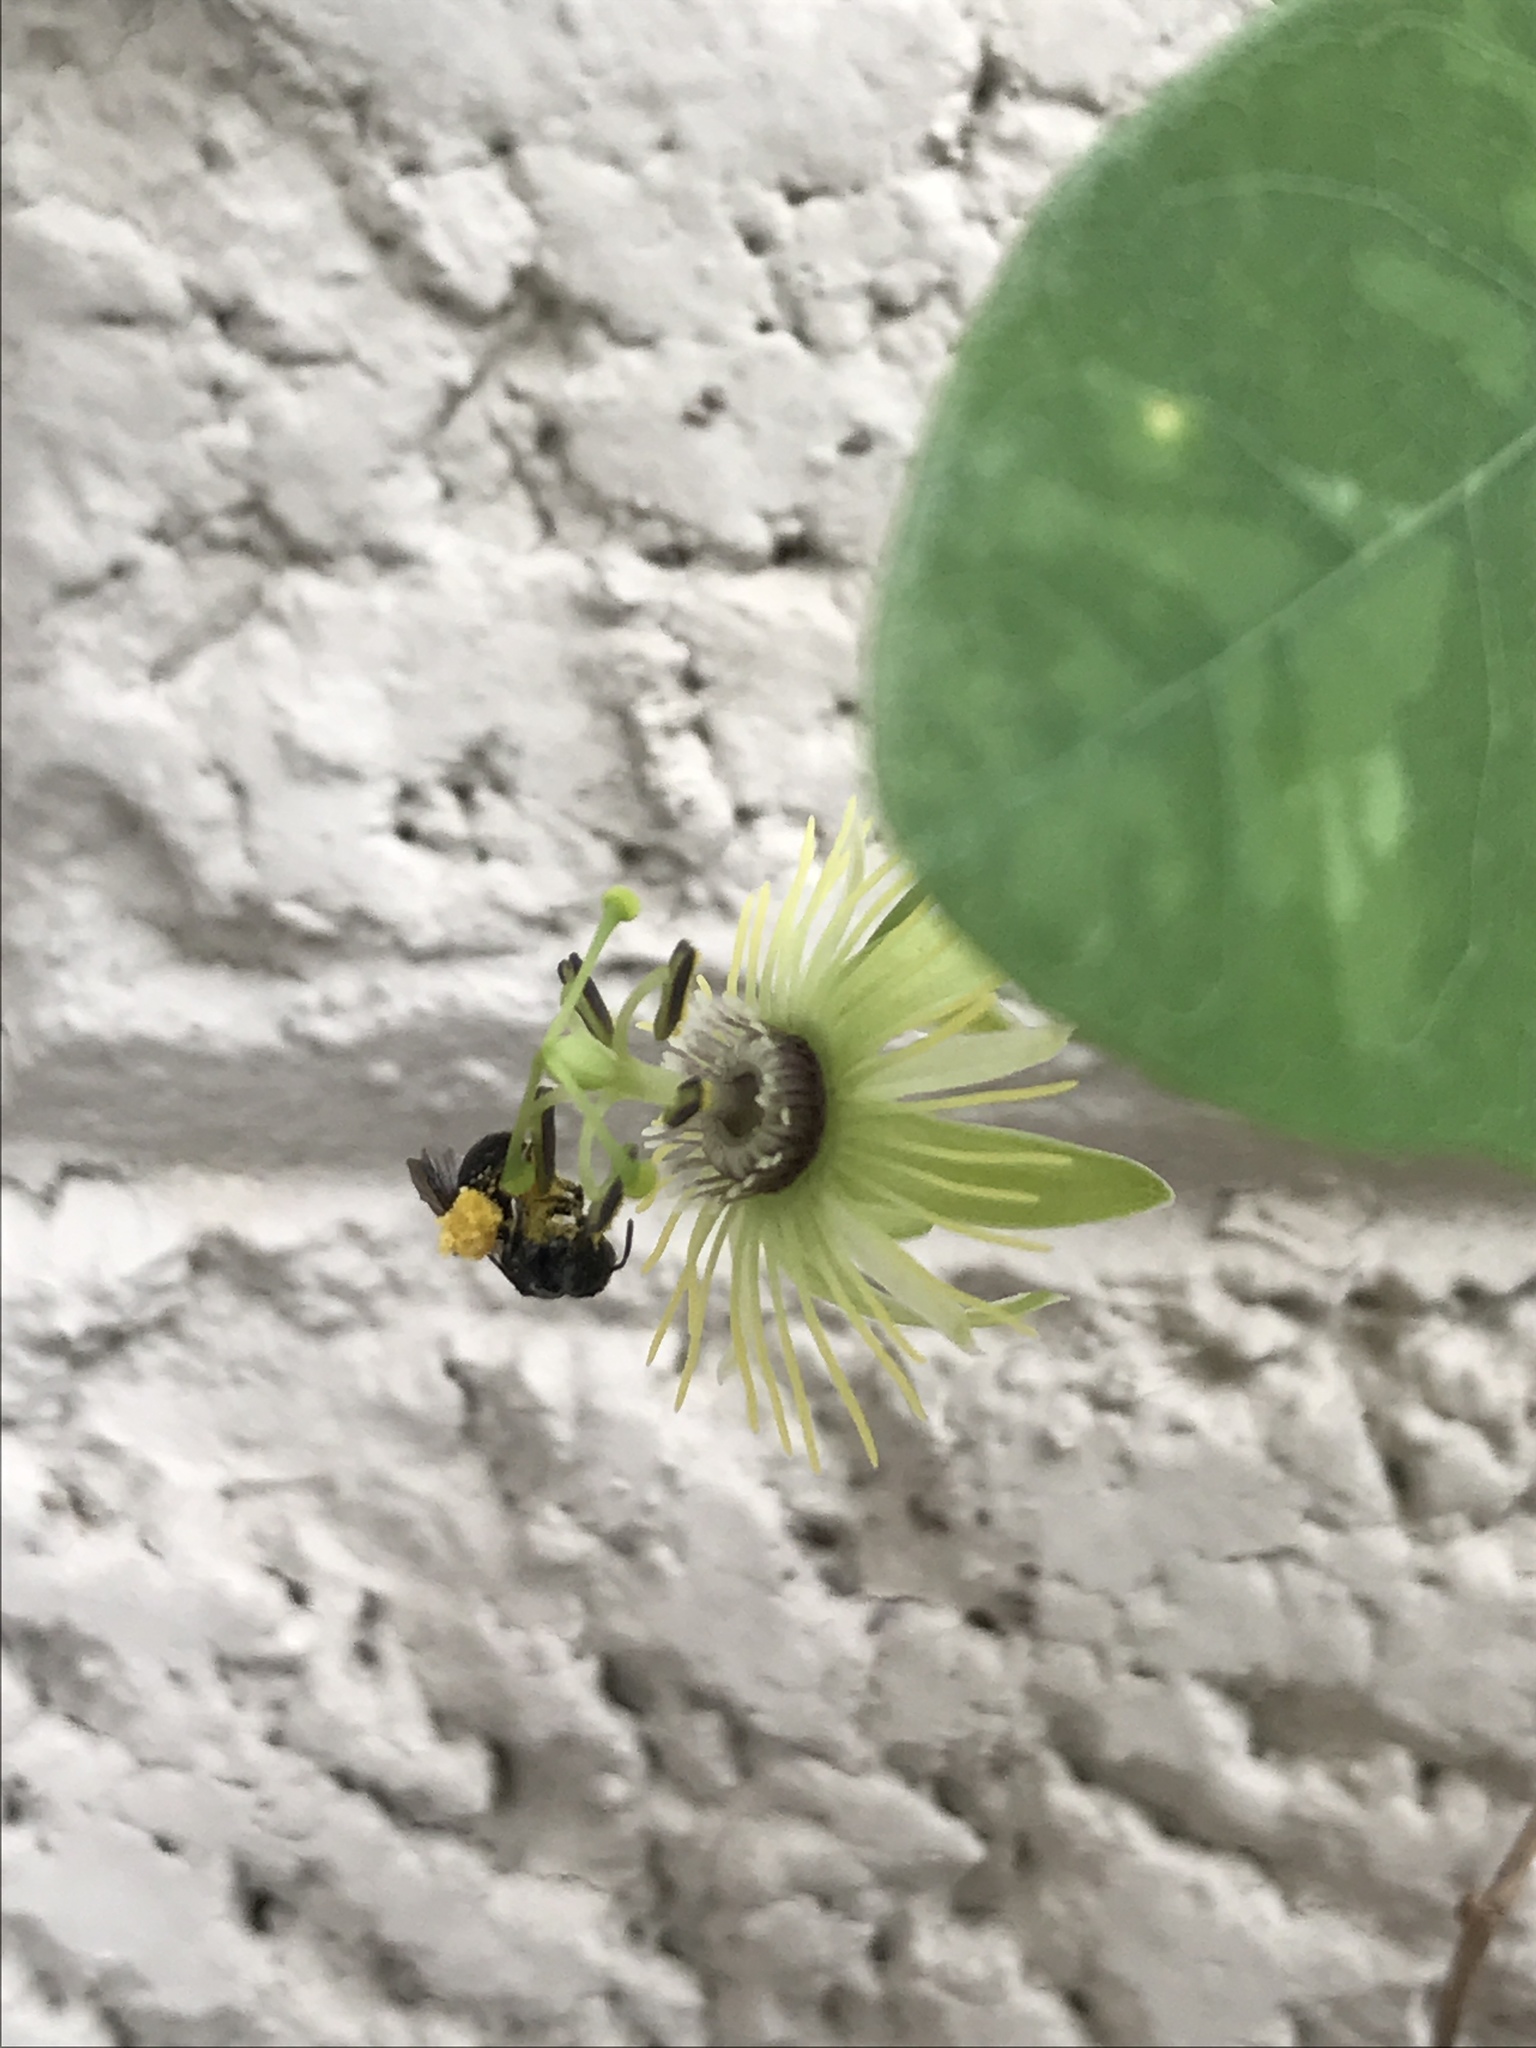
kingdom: Animalia
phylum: Arthropoda
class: Insecta
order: Hymenoptera
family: Andrenidae
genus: Protandrena
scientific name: Protandrena
